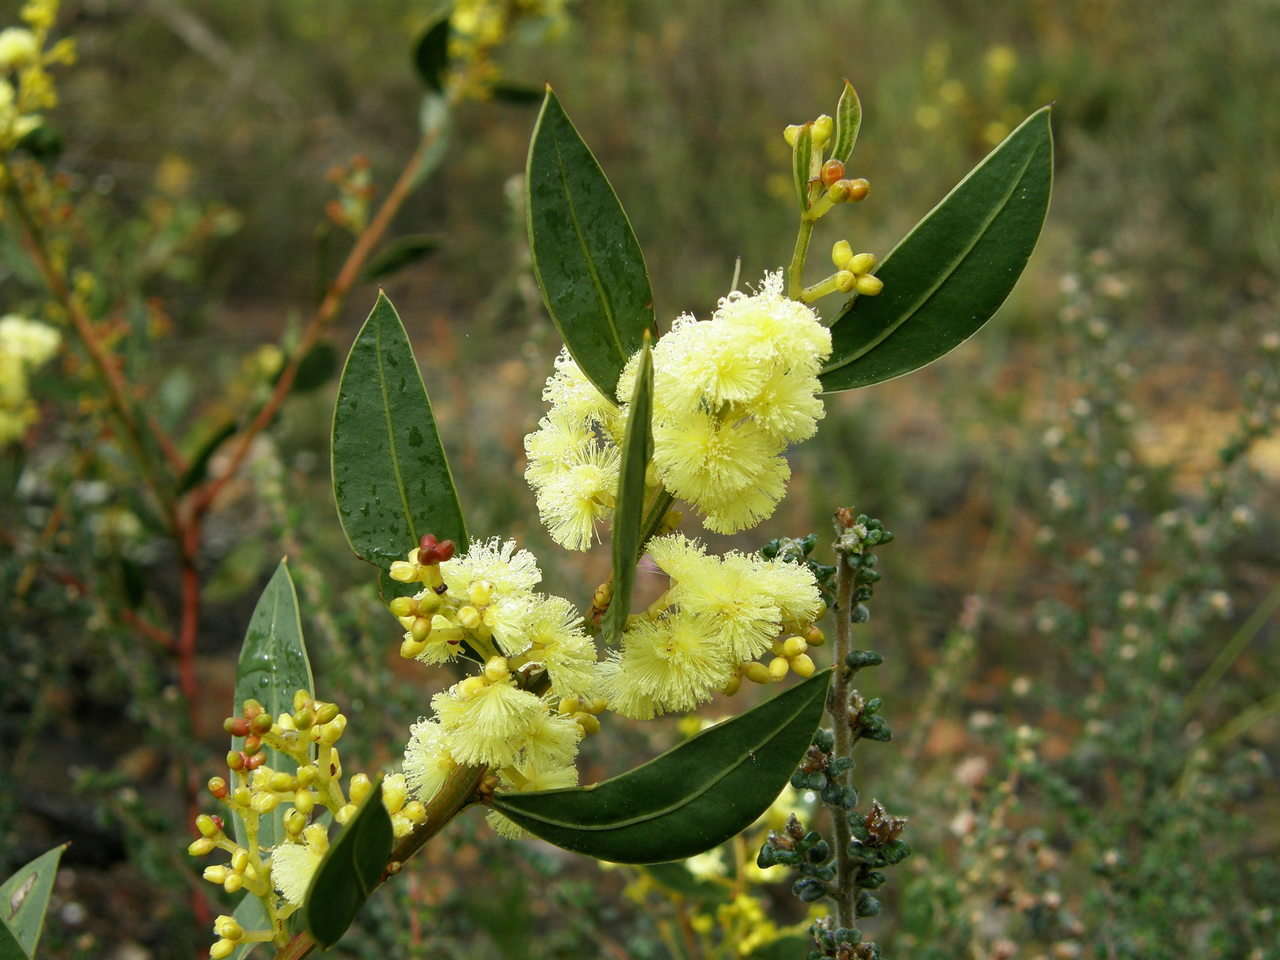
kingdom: Plantae
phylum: Tracheophyta
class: Magnoliopsida
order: Fabales
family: Fabaceae
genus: Acacia
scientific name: Acacia myrtifolia
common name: Myrtle wattle
